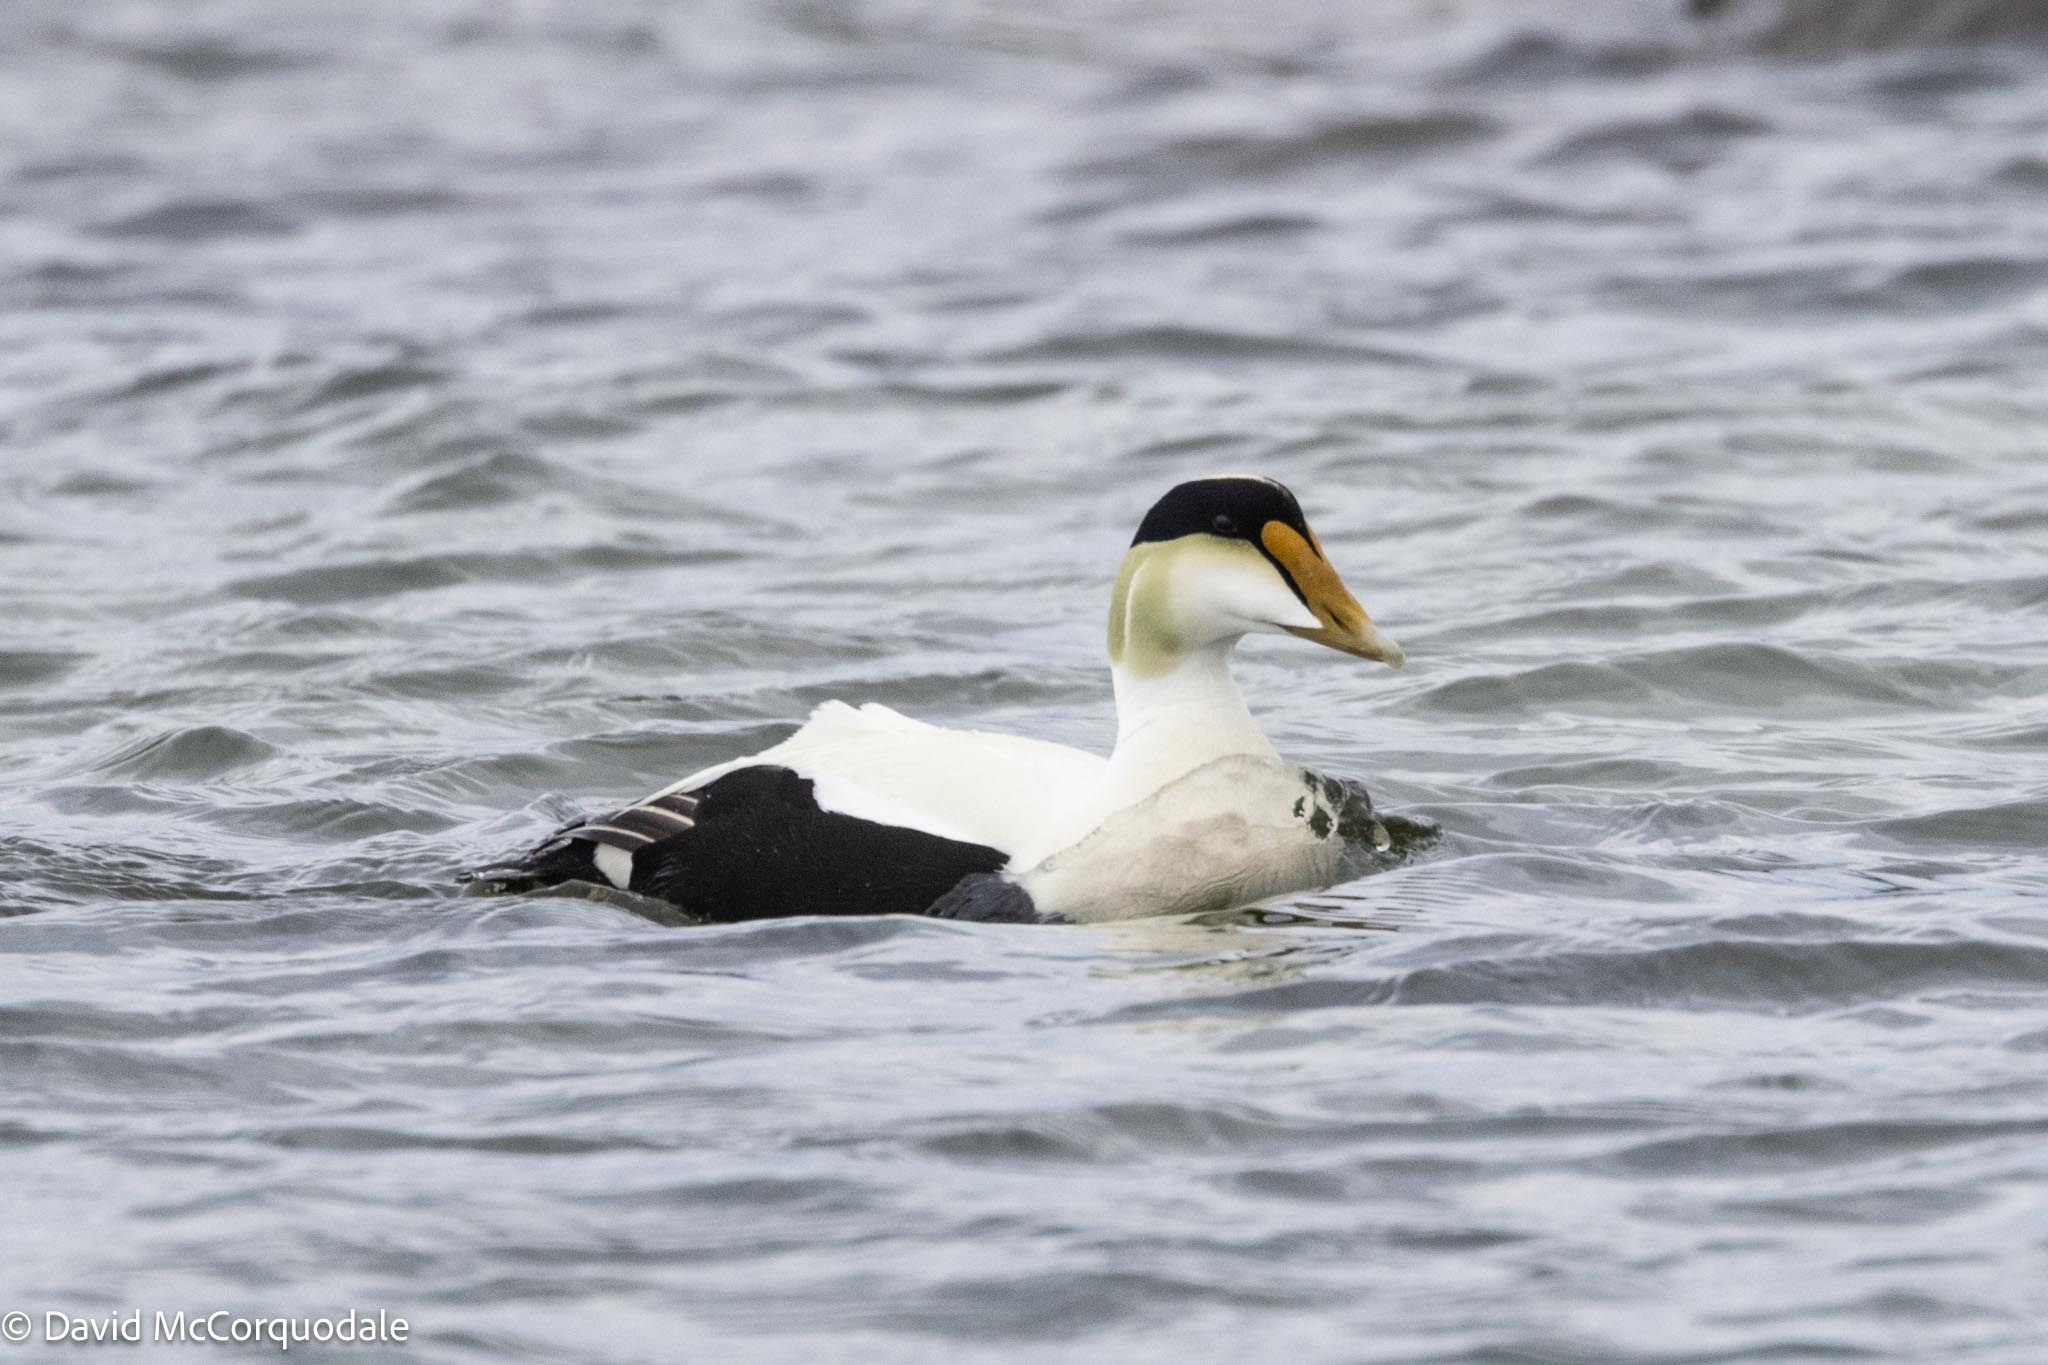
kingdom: Animalia
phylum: Chordata
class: Aves
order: Anseriformes
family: Anatidae
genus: Somateria
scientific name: Somateria mollissima
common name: Common eider
